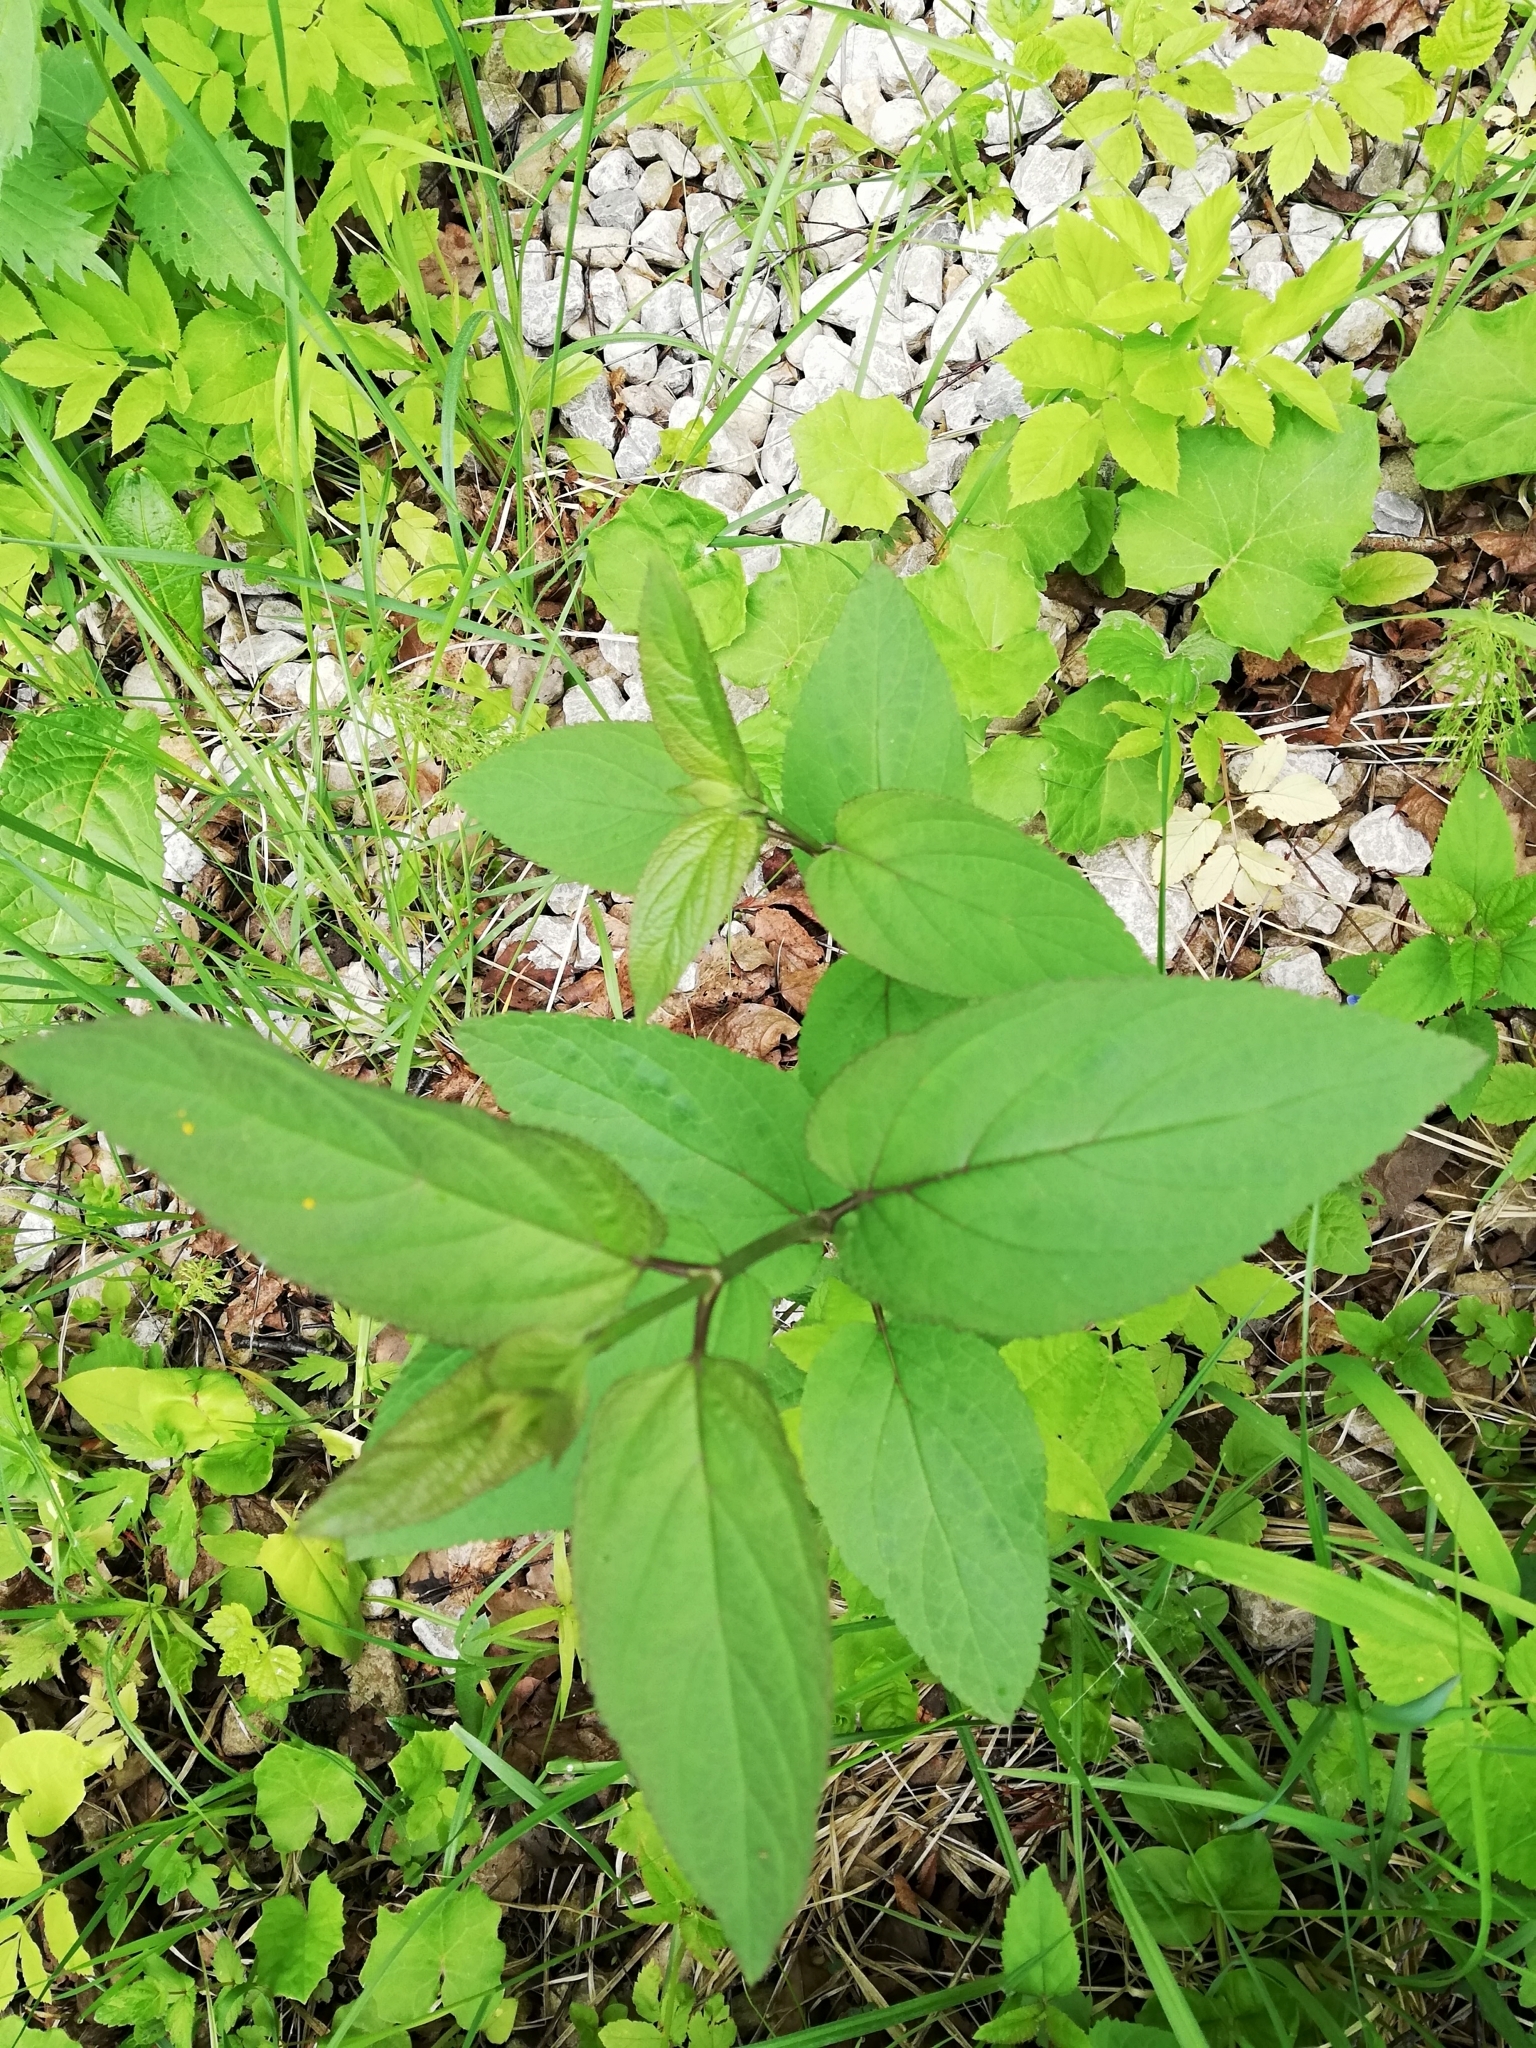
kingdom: Plantae
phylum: Tracheophyta
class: Magnoliopsida
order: Lamiales
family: Scrophulariaceae
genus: Scrophularia
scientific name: Scrophularia nodosa
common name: Common figwort
